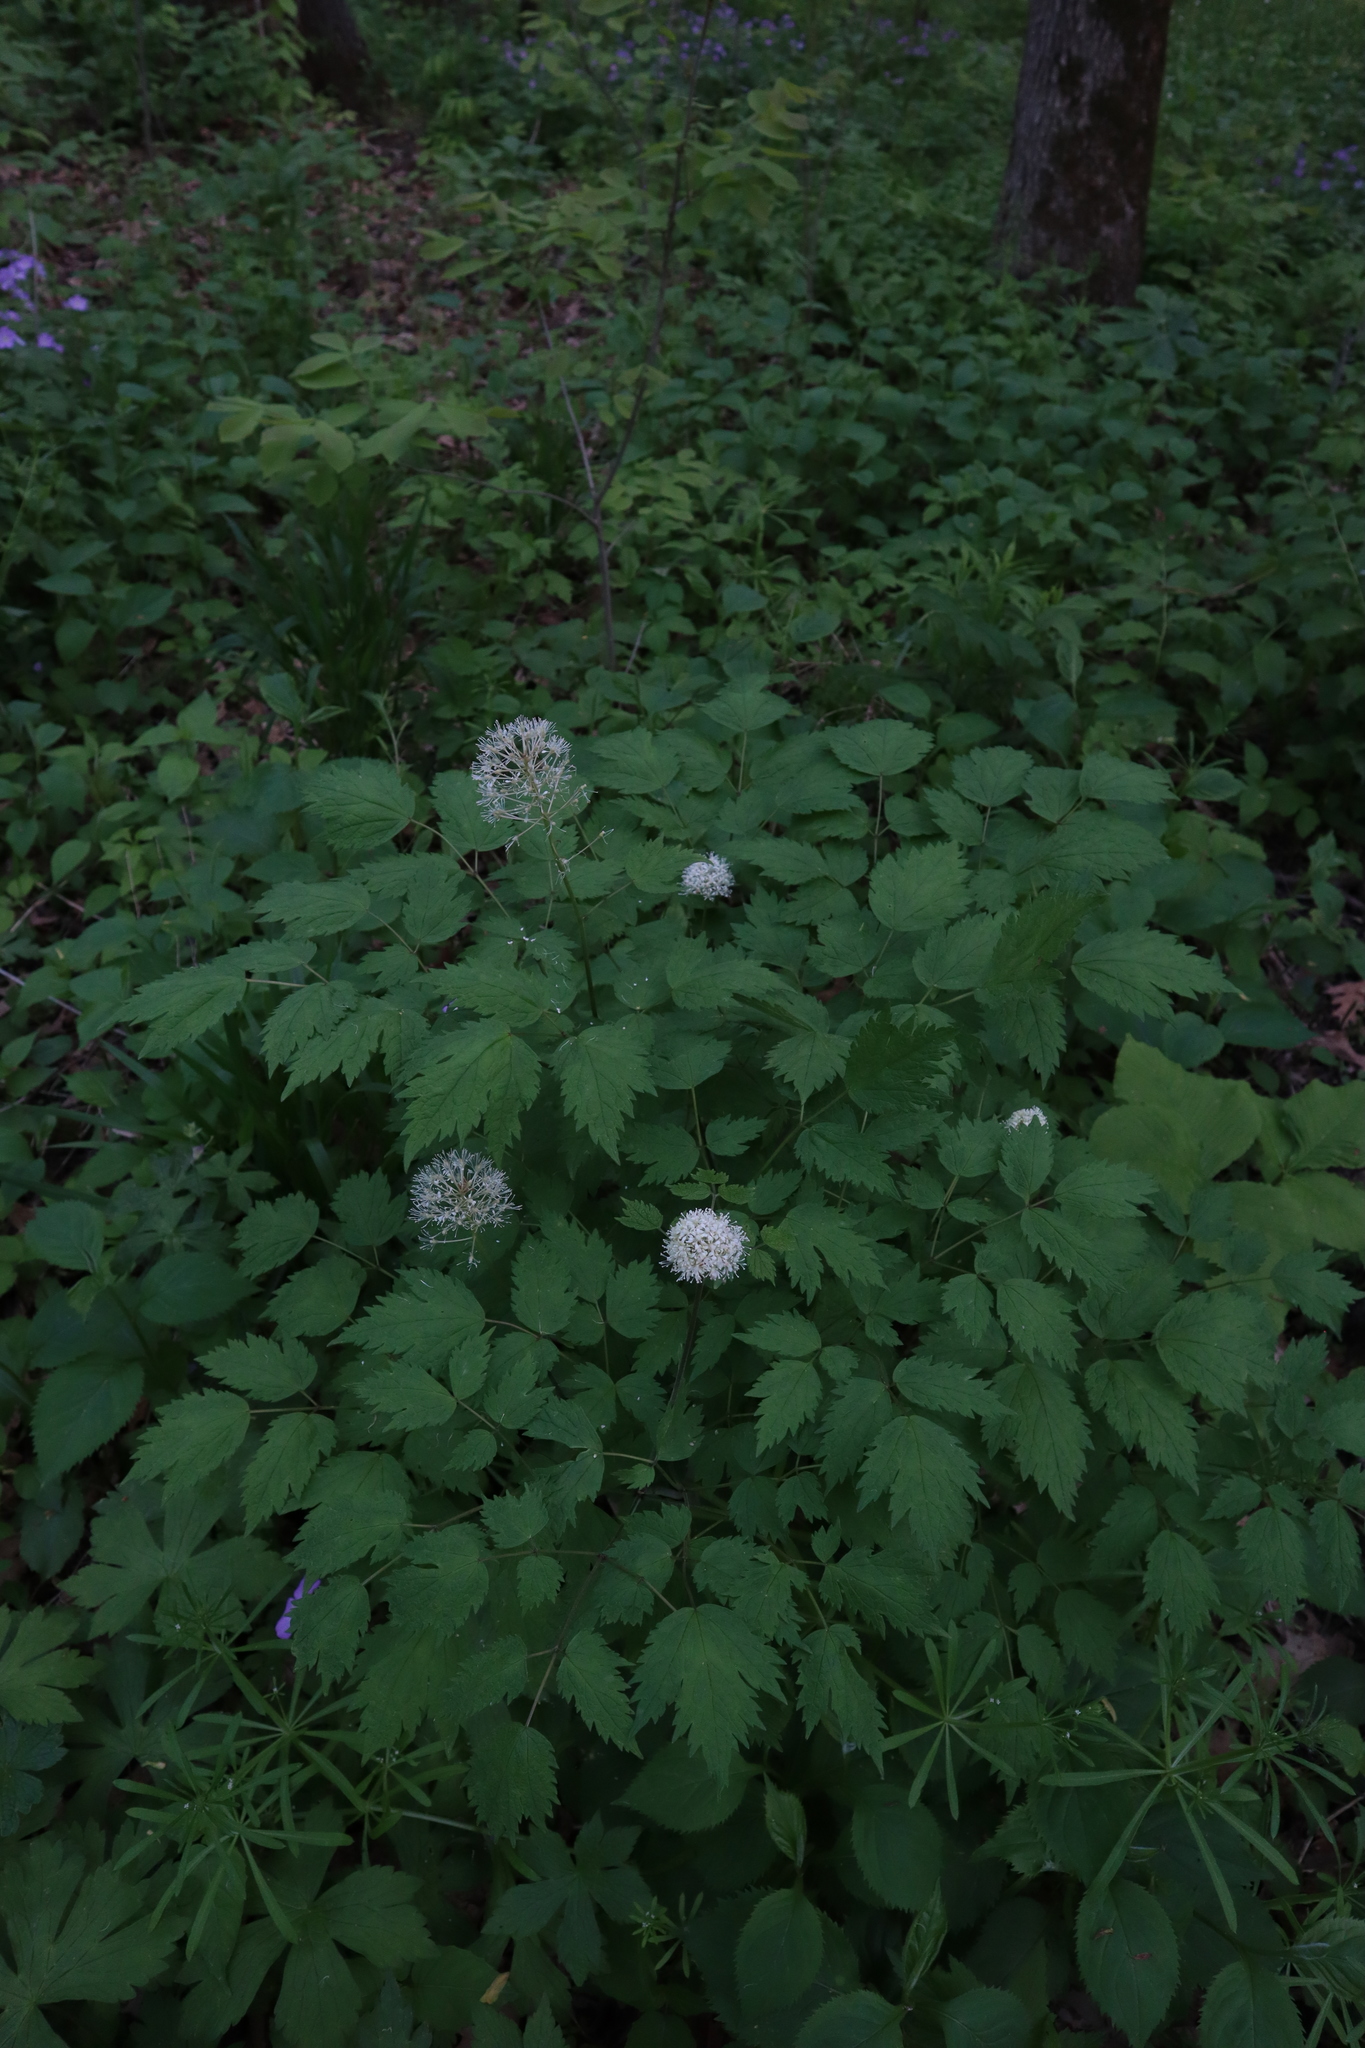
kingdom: Plantae
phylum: Tracheophyta
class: Magnoliopsida
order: Ranunculales
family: Ranunculaceae
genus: Actaea
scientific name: Actaea pachypoda
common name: Doll's-eyes
